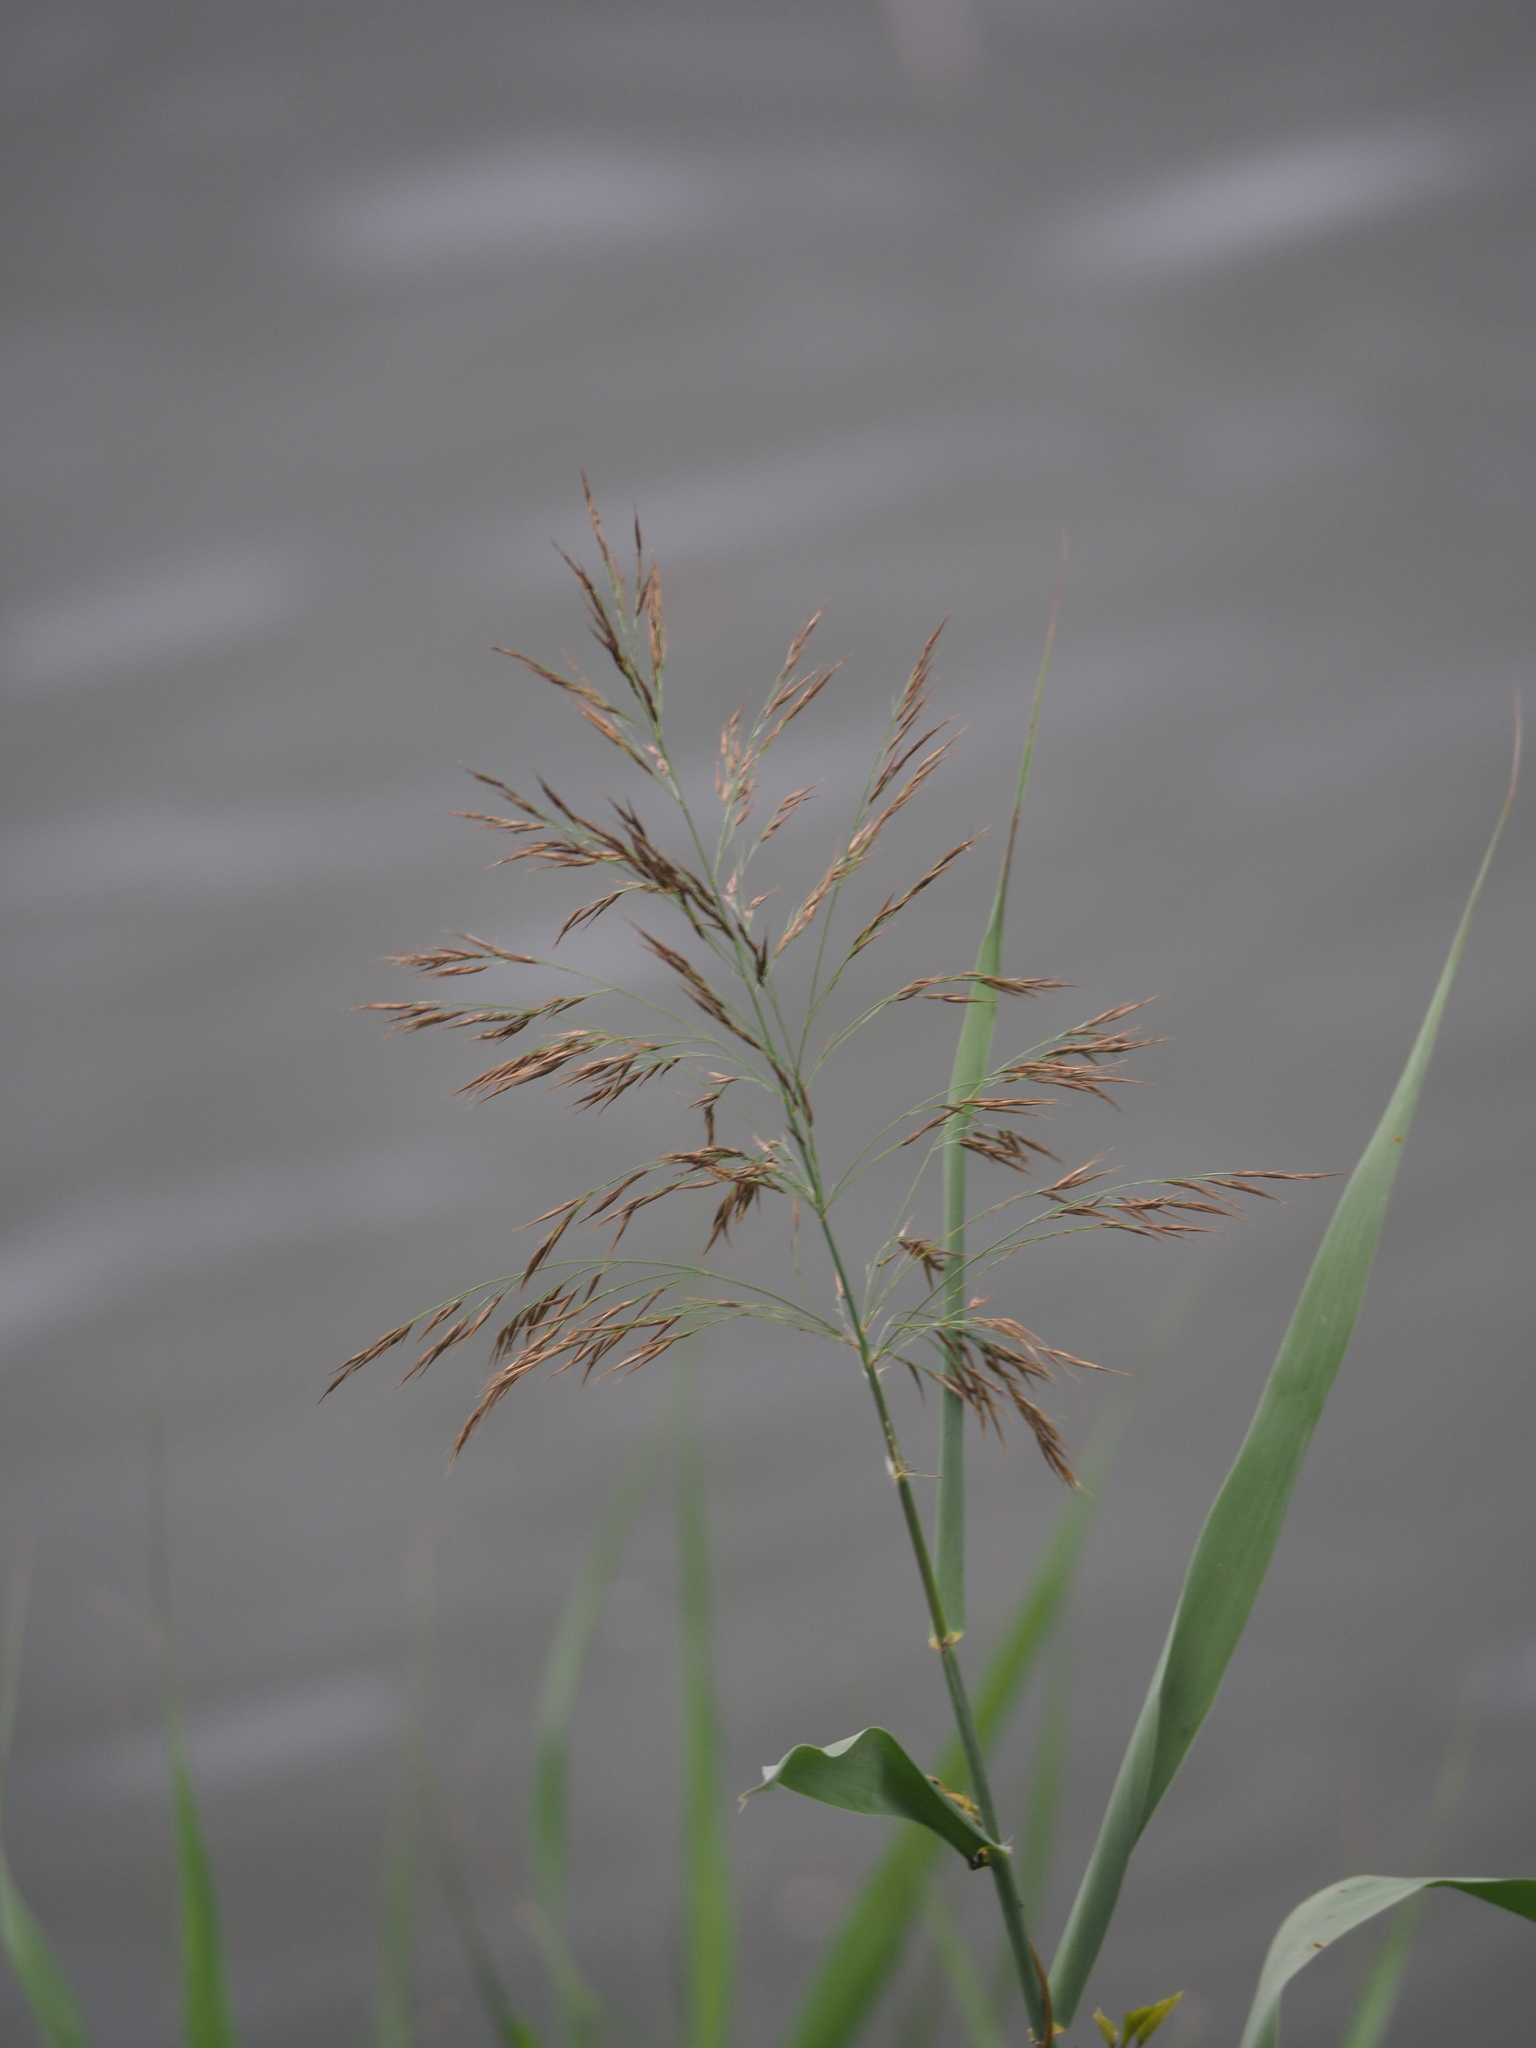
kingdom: Plantae
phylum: Tracheophyta
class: Liliopsida
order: Poales
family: Poaceae
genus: Phragmites
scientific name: Phragmites karka
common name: Tropical reed
